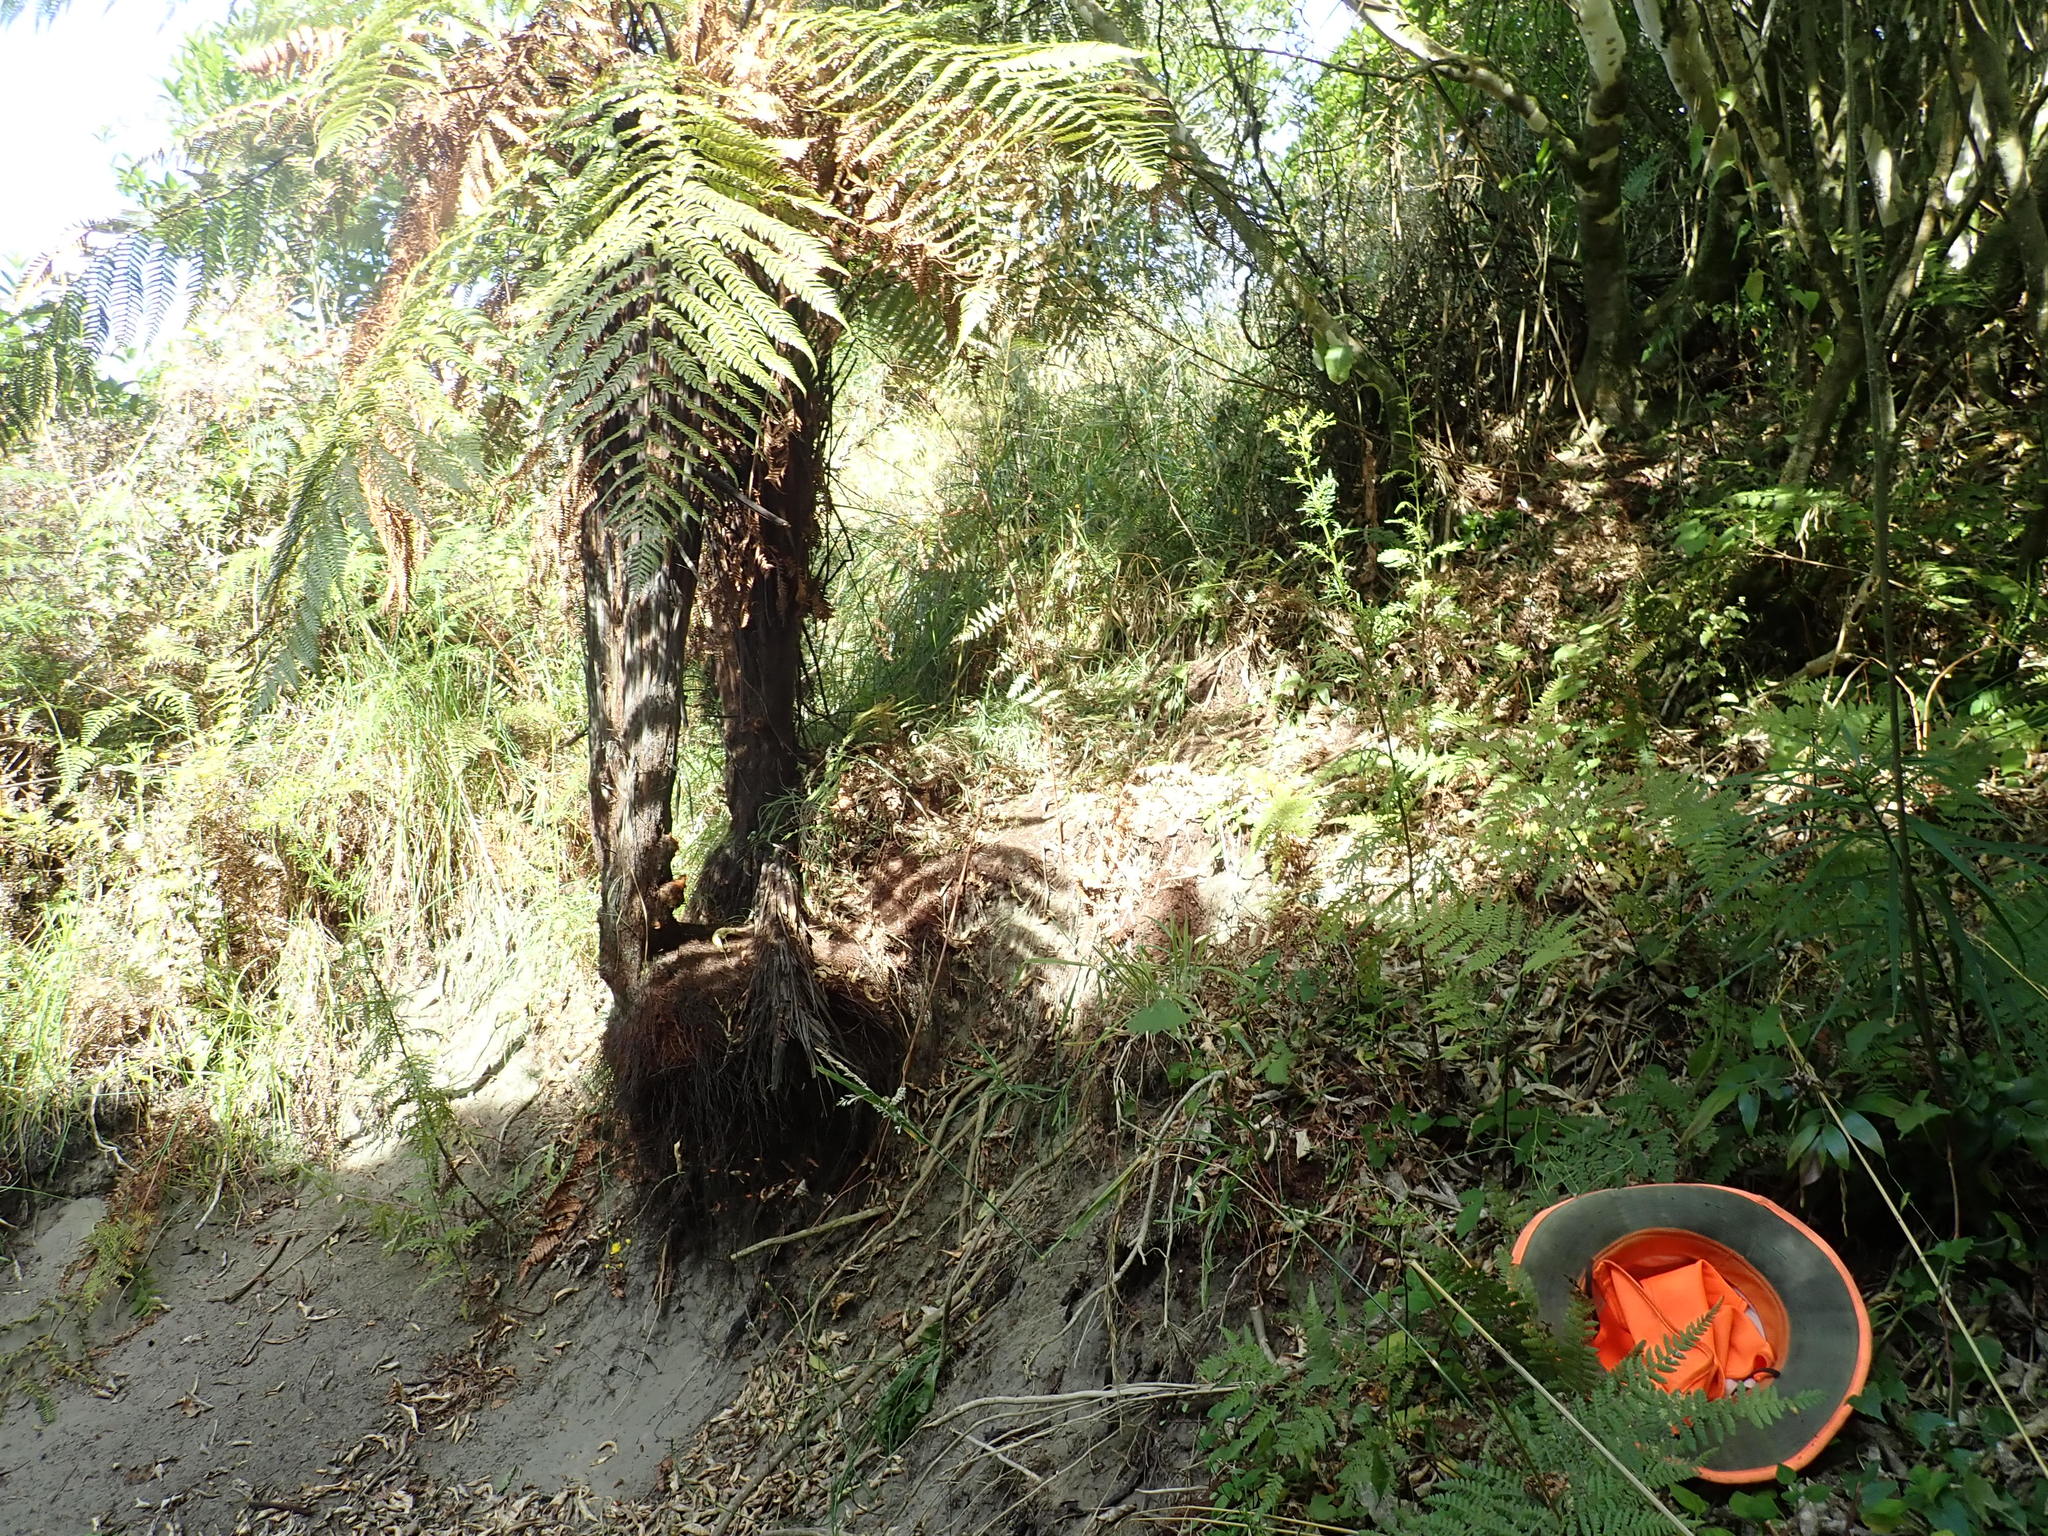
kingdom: Plantae
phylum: Tracheophyta
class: Magnoliopsida
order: Asterales
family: Asteraceae
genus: Senecio
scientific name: Senecio bipinnatisectus
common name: Australian fireweed
